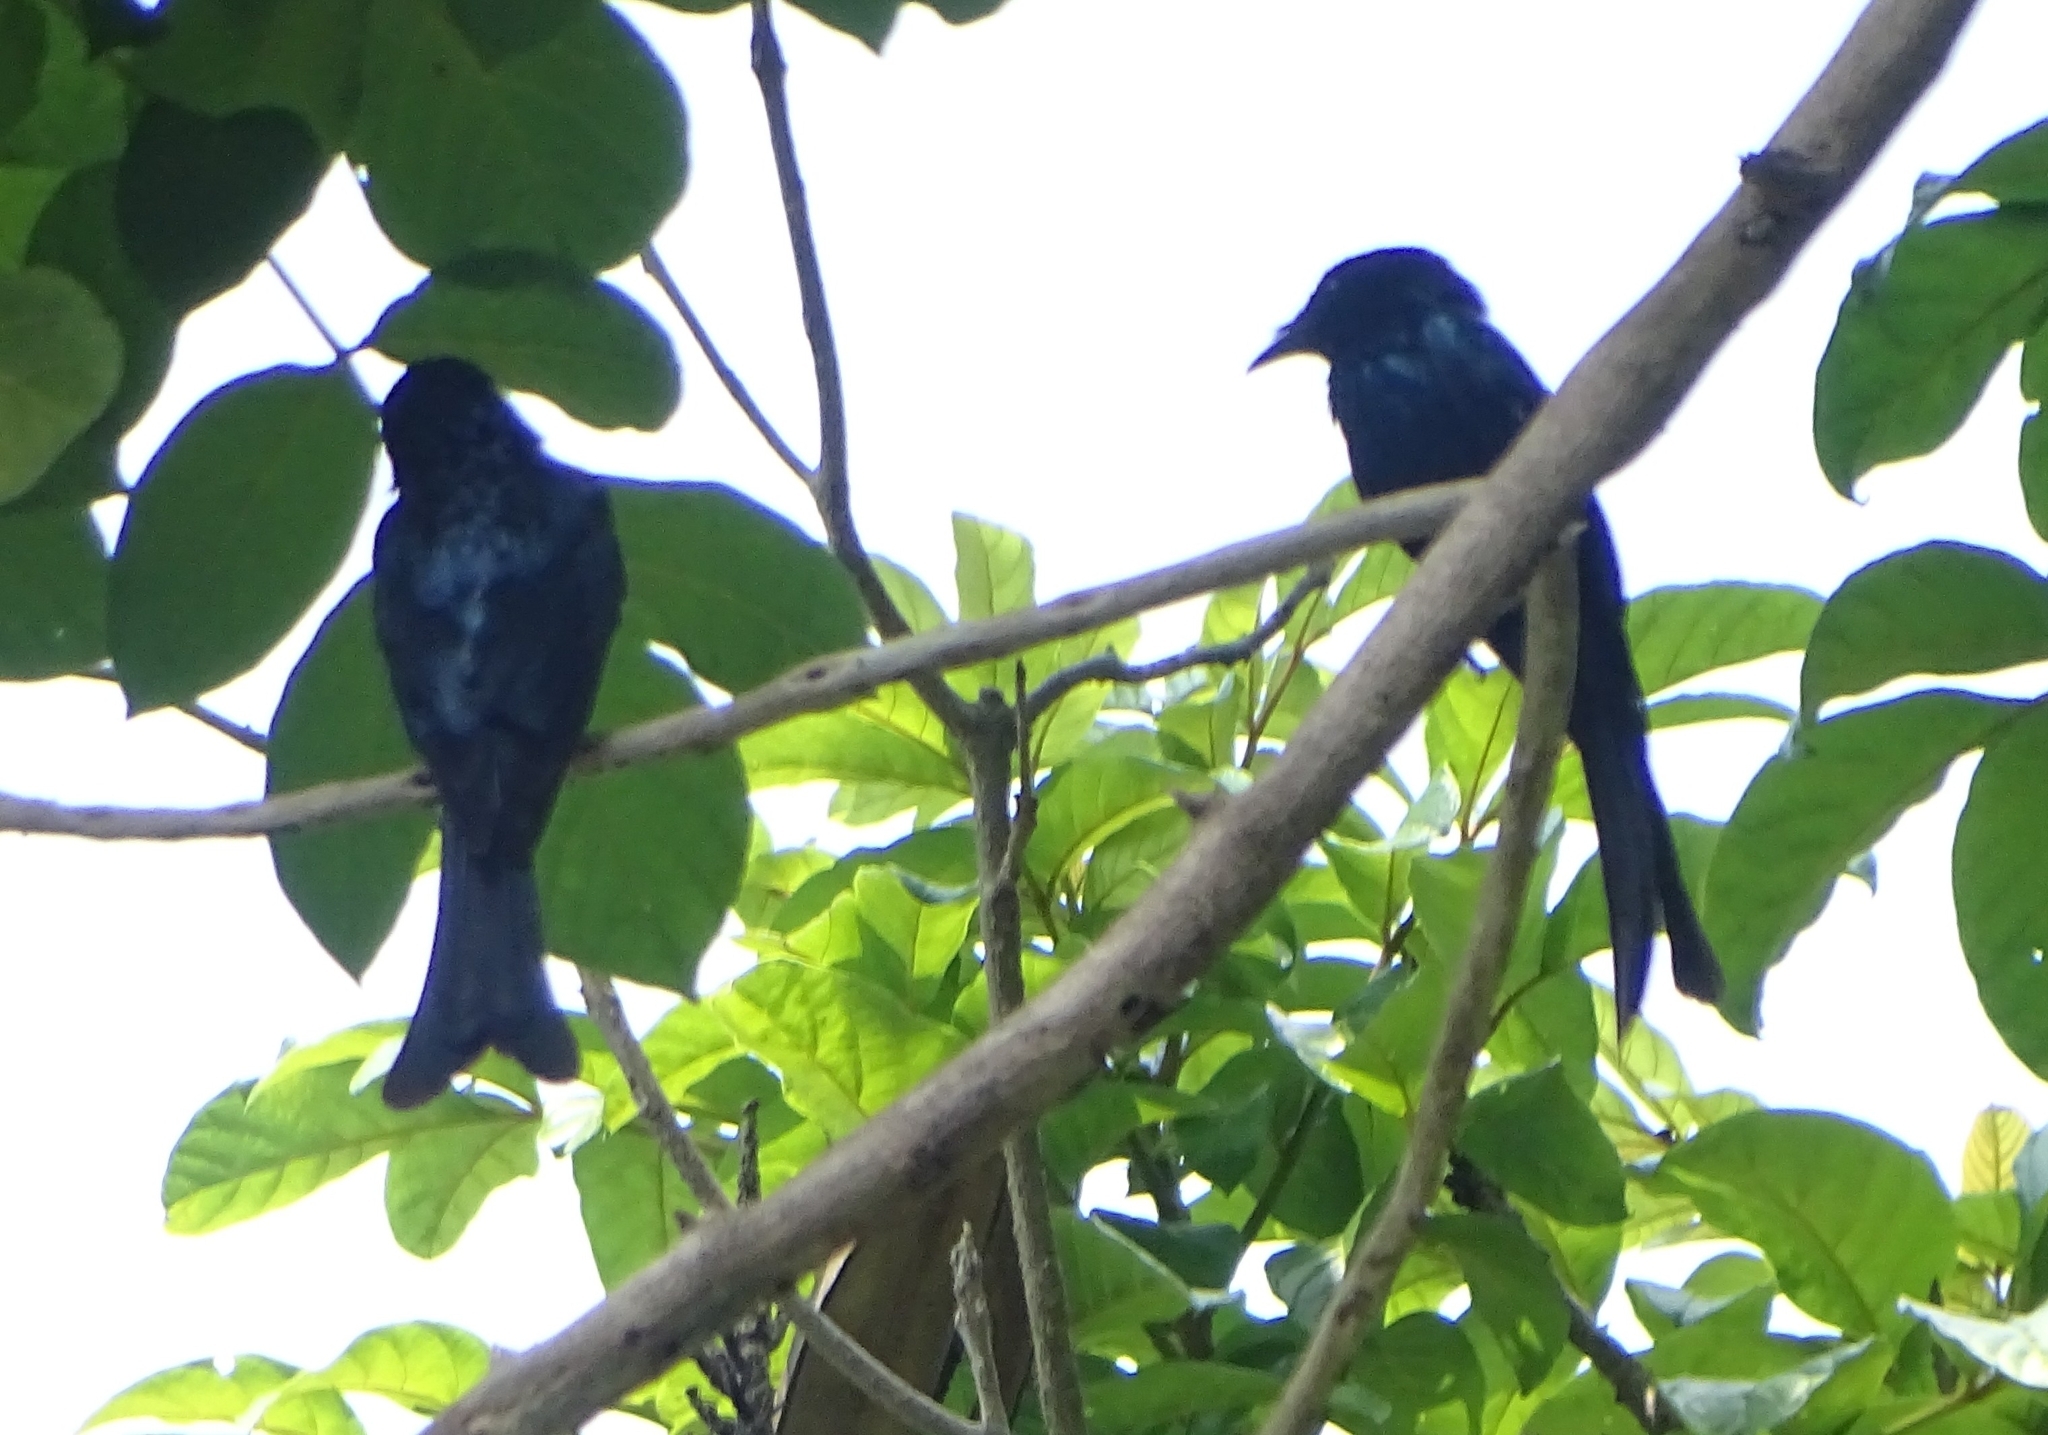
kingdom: Animalia
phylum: Chordata
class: Aves
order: Passeriformes
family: Dicruridae
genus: Dicrurus
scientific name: Dicrurus aeneus
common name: Bronzed drongo
